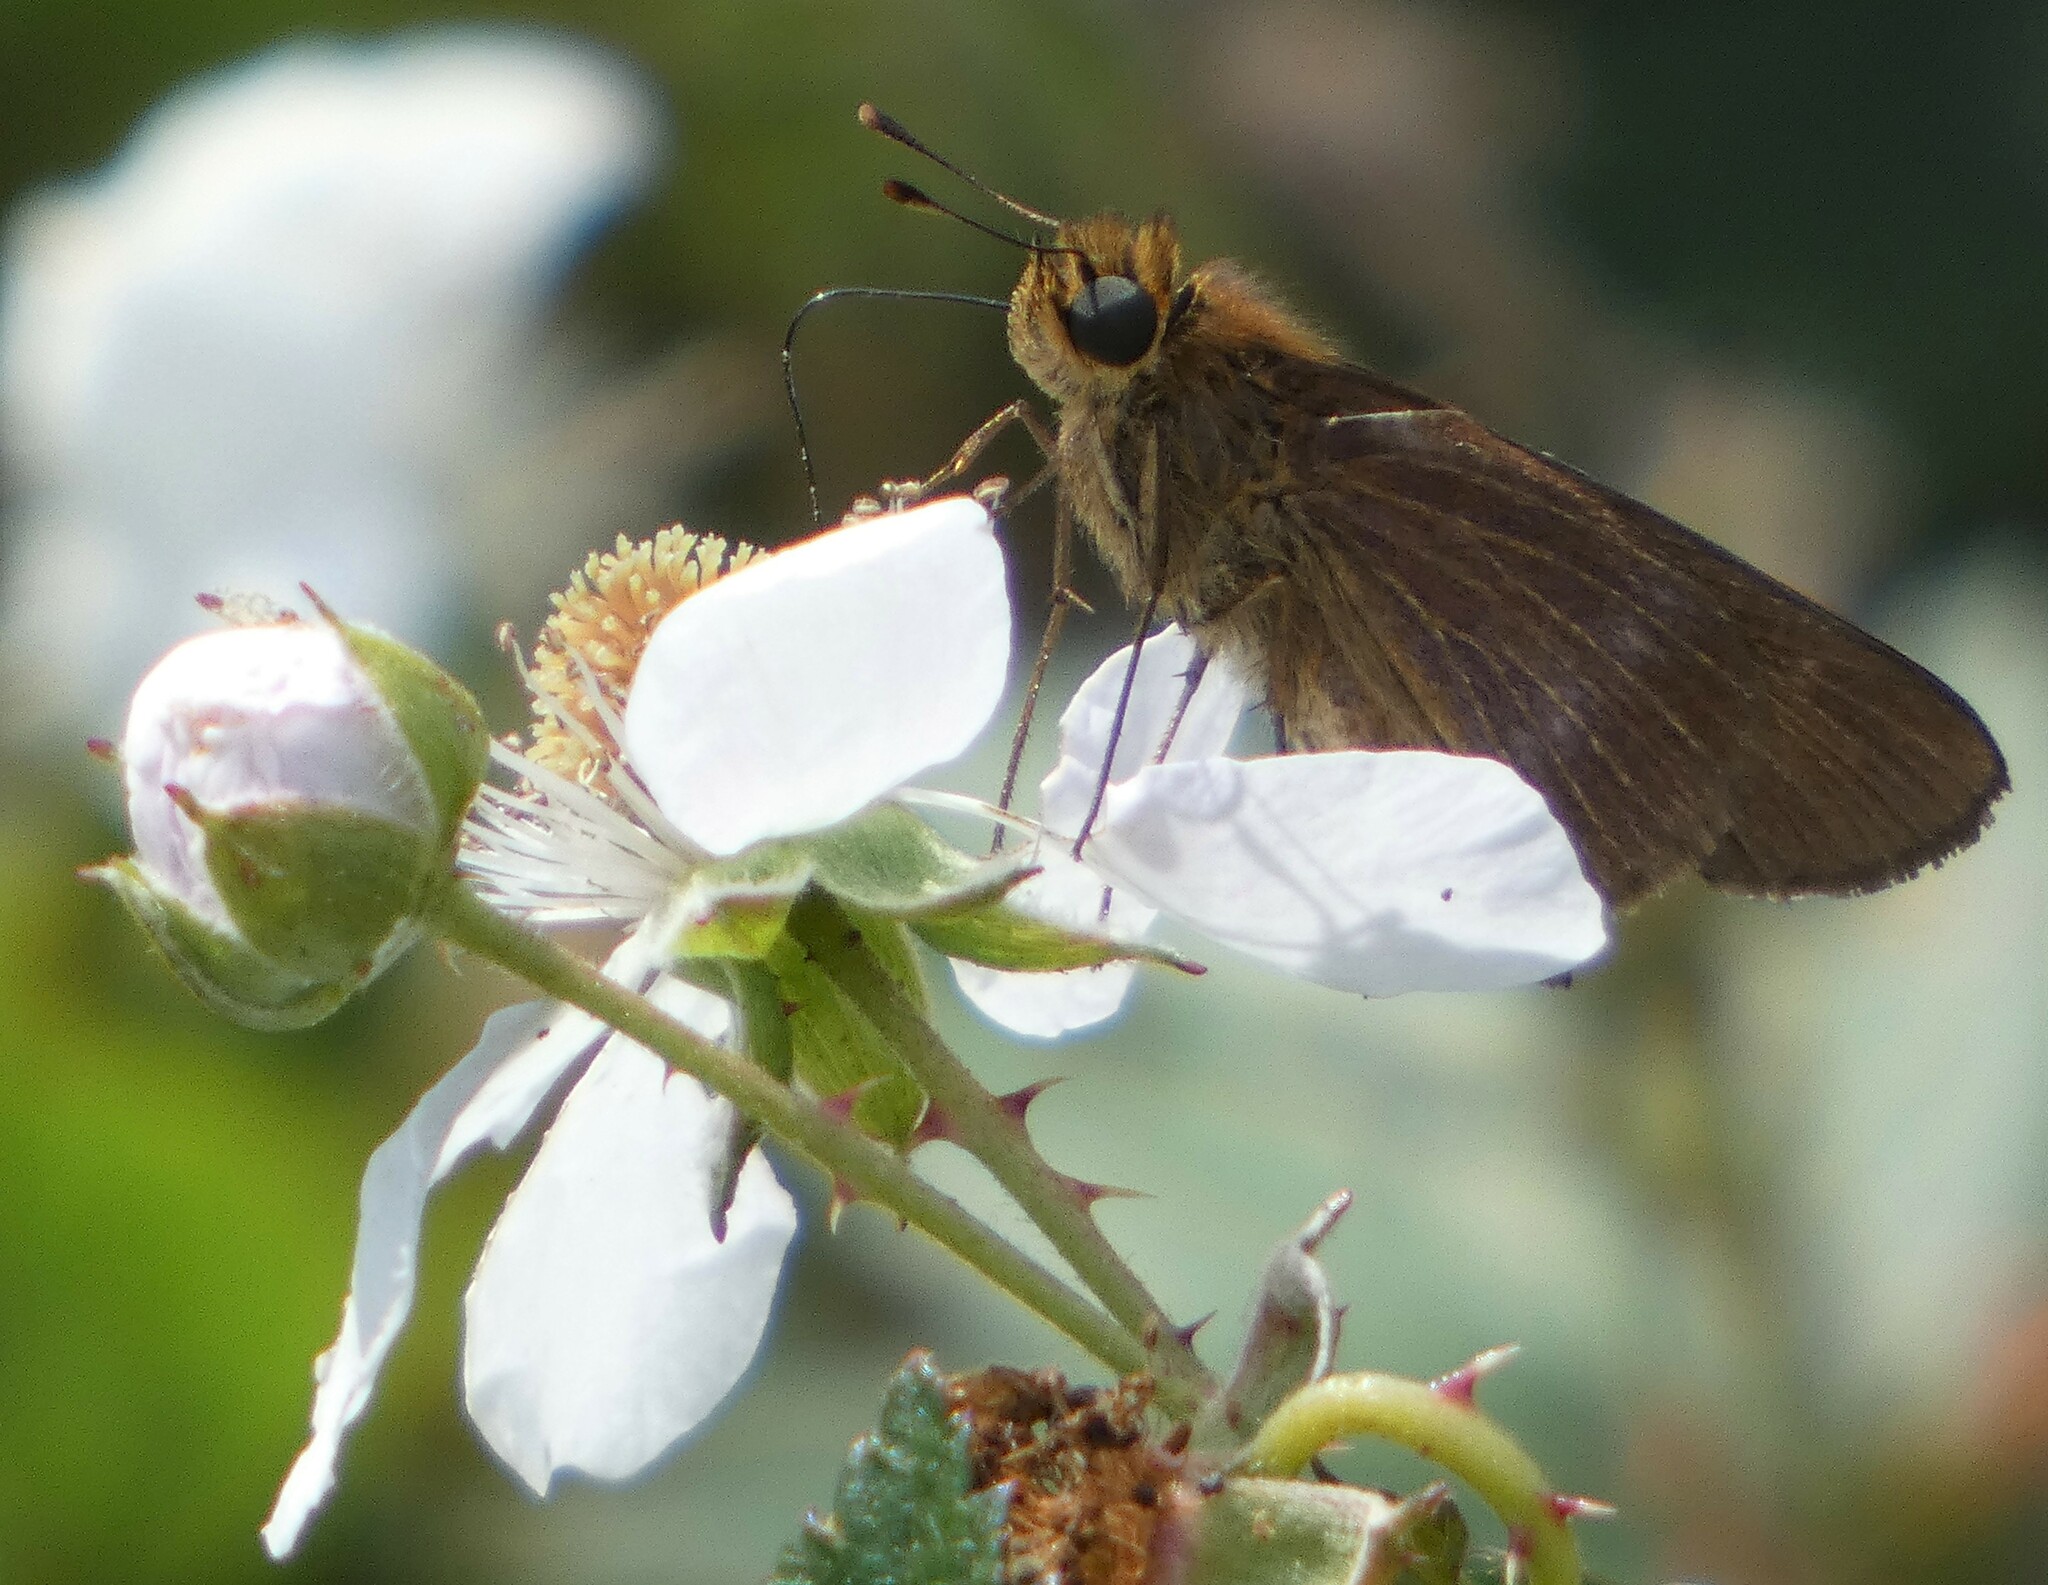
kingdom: Animalia
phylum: Arthropoda
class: Insecta
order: Lepidoptera
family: Hesperiidae
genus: Panoquina
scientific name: Panoquina ocola
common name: Ocola skipper
